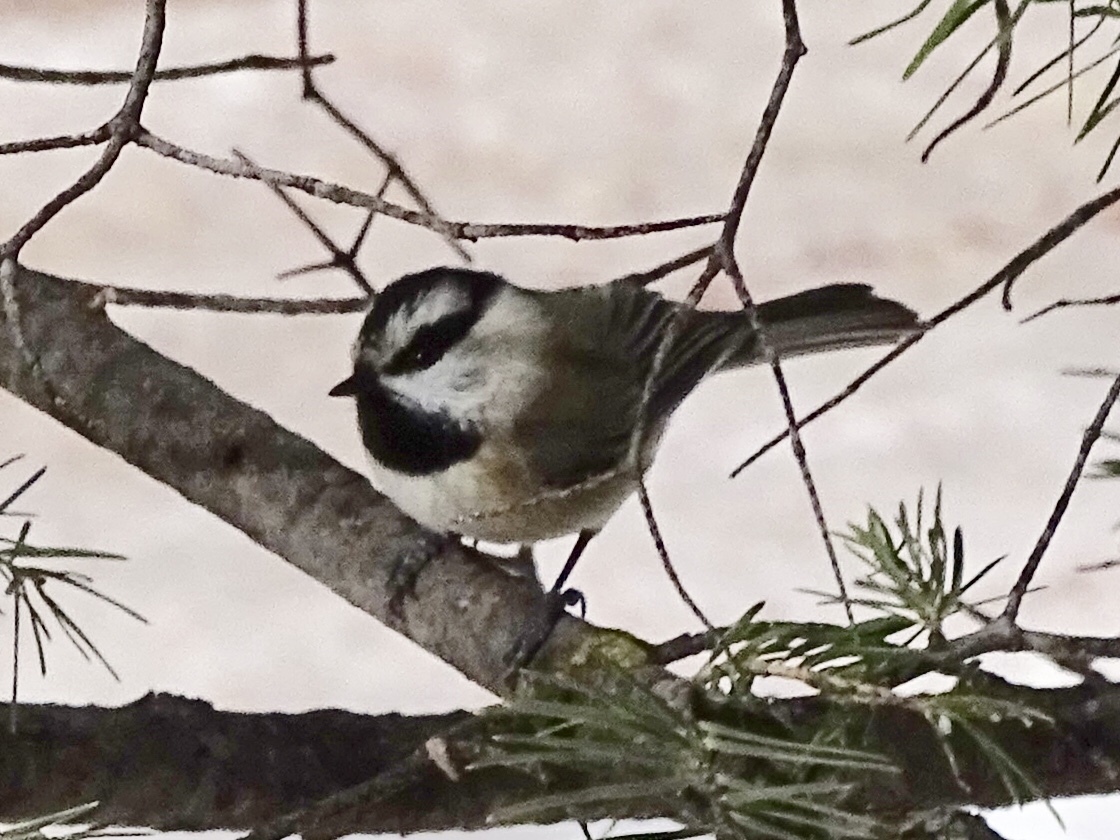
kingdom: Animalia
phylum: Chordata
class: Aves
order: Passeriformes
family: Paridae
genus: Poecile
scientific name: Poecile gambeli
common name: Mountain chickadee
